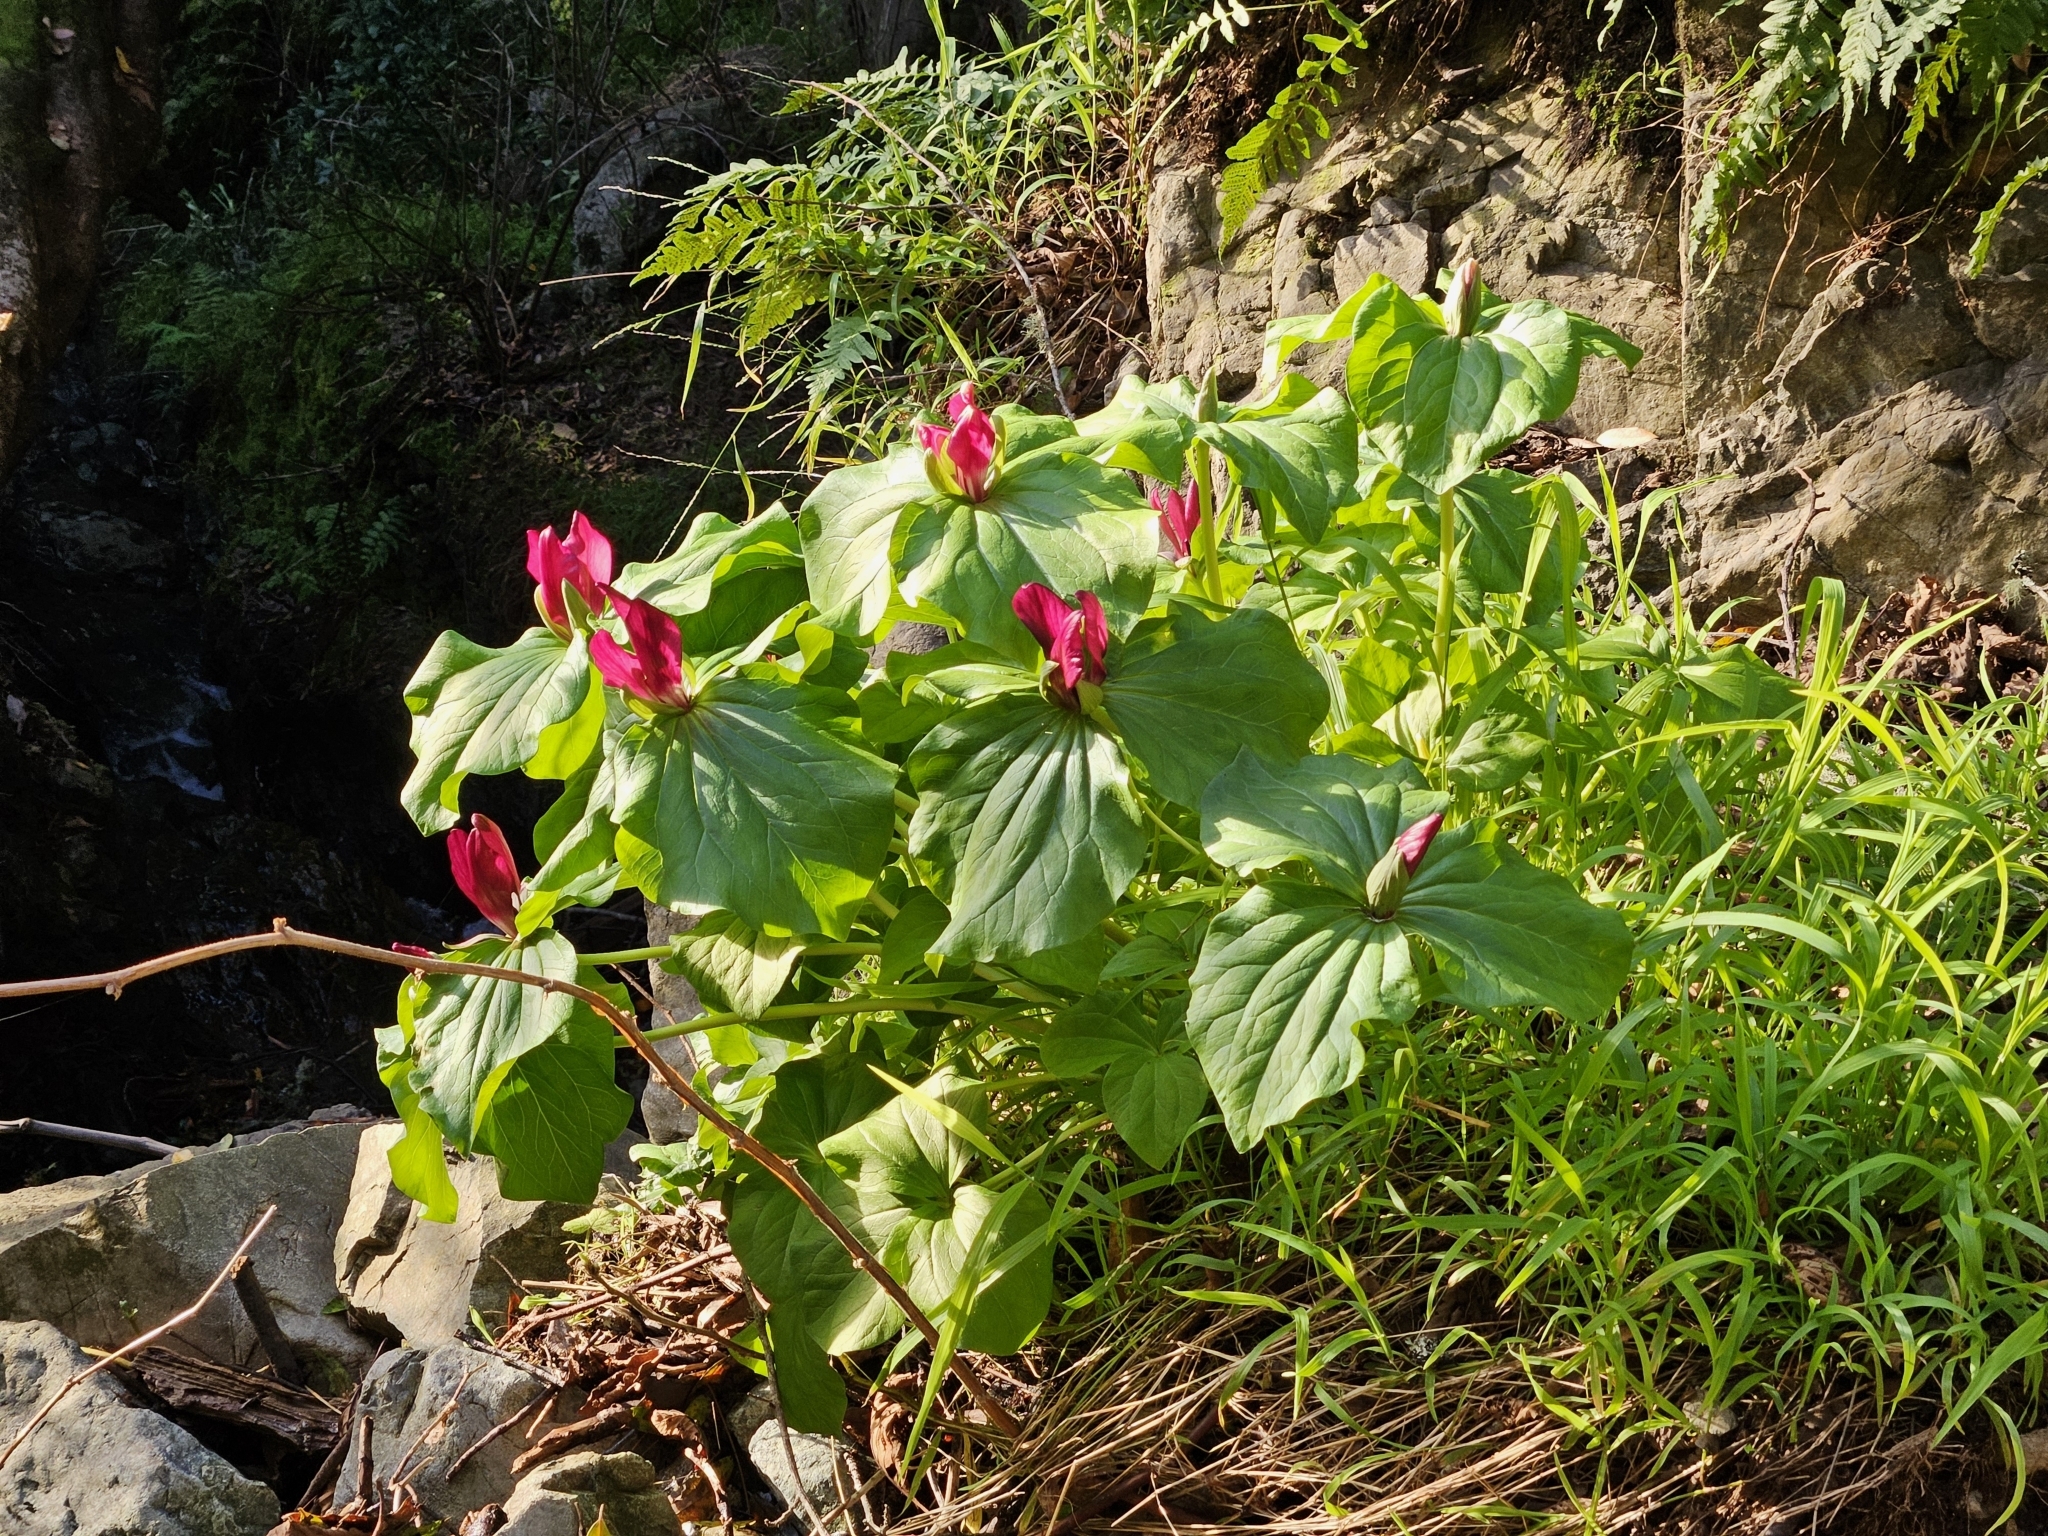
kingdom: Plantae
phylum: Tracheophyta
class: Liliopsida
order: Liliales
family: Melanthiaceae
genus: Trillium
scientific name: Trillium chloropetalum
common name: Giant trillium
